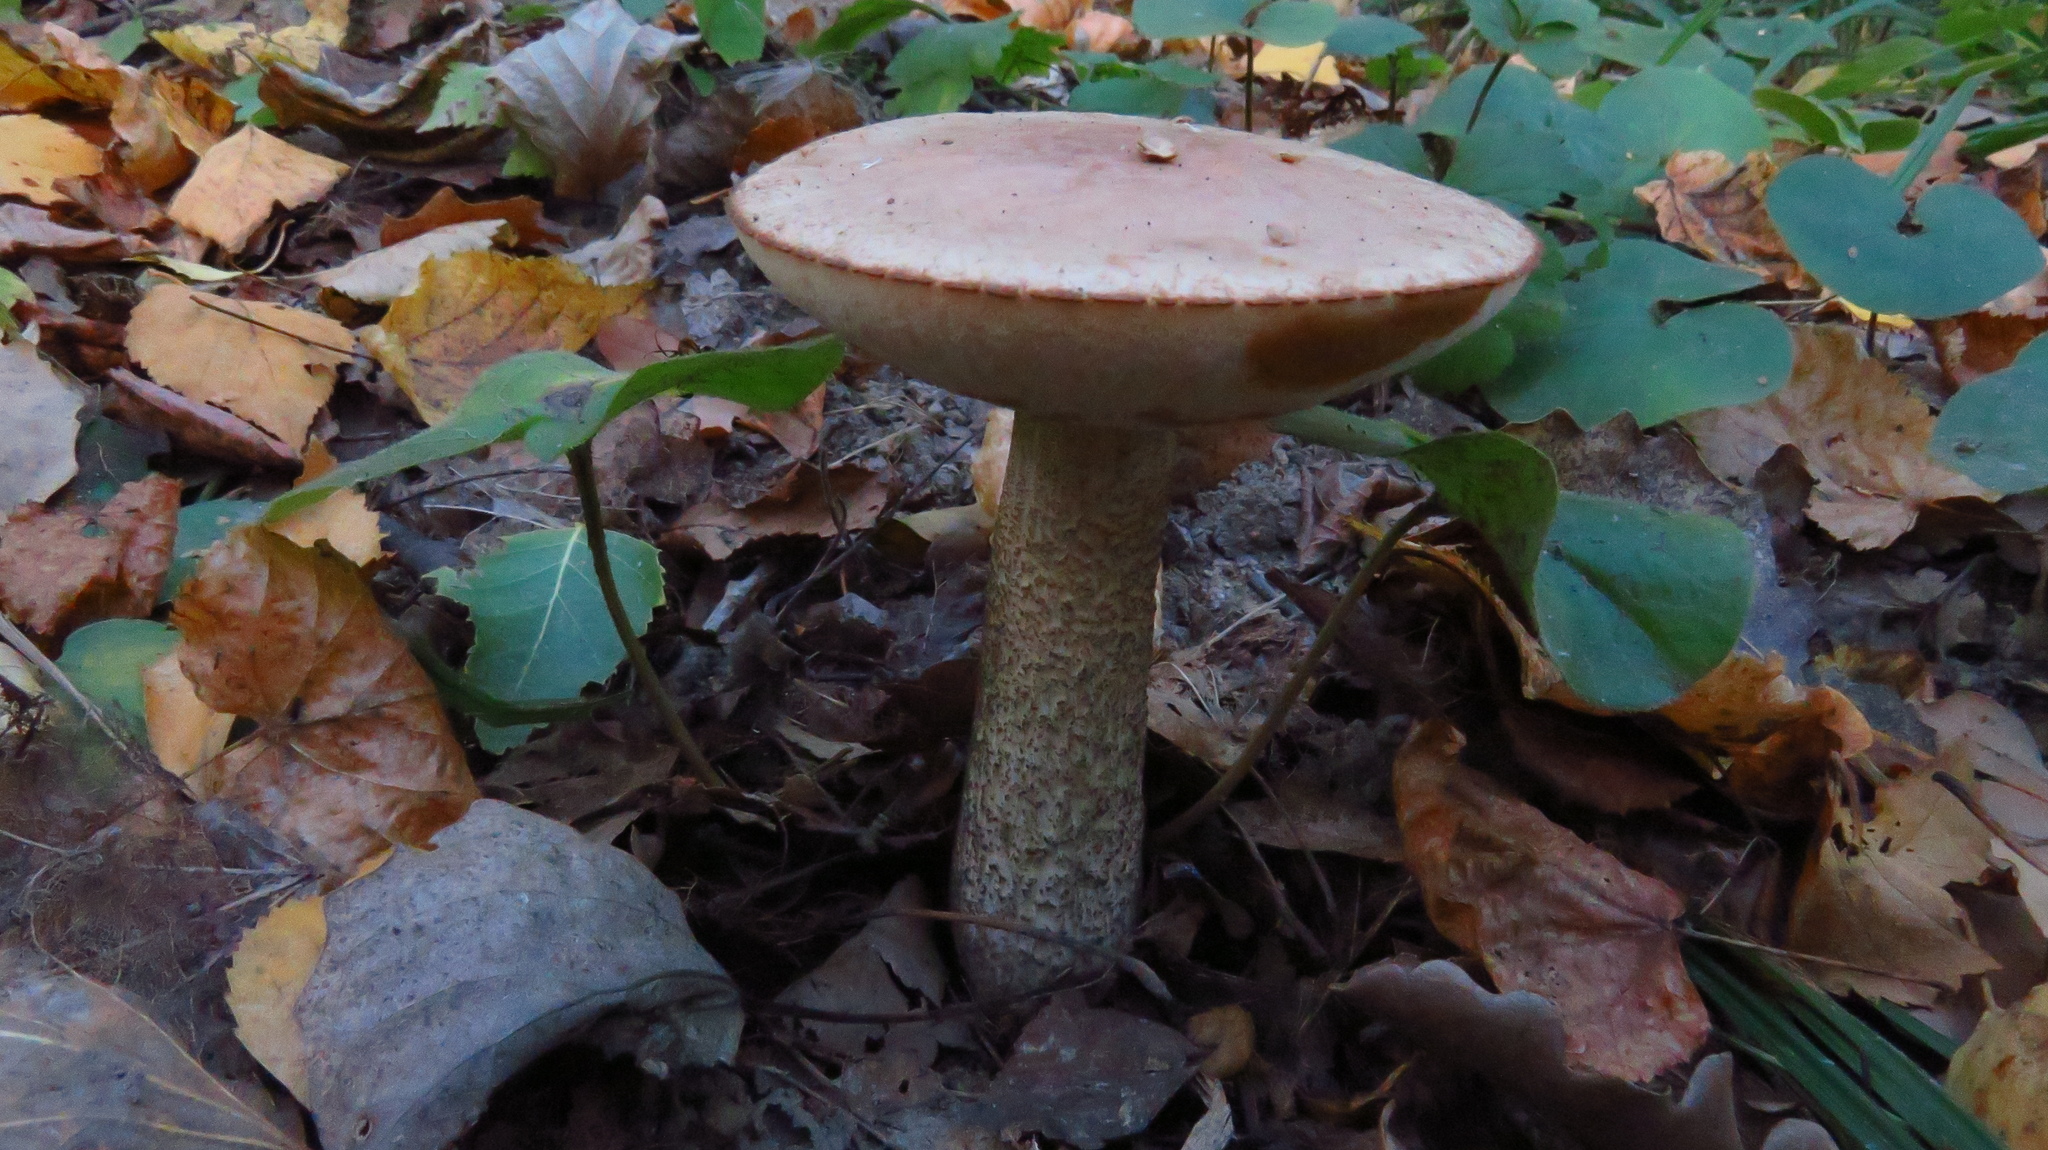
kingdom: Fungi
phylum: Basidiomycota
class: Agaricomycetes
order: Boletales
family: Boletaceae
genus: Leccinum
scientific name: Leccinum scabrum
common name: Blushing bolete
